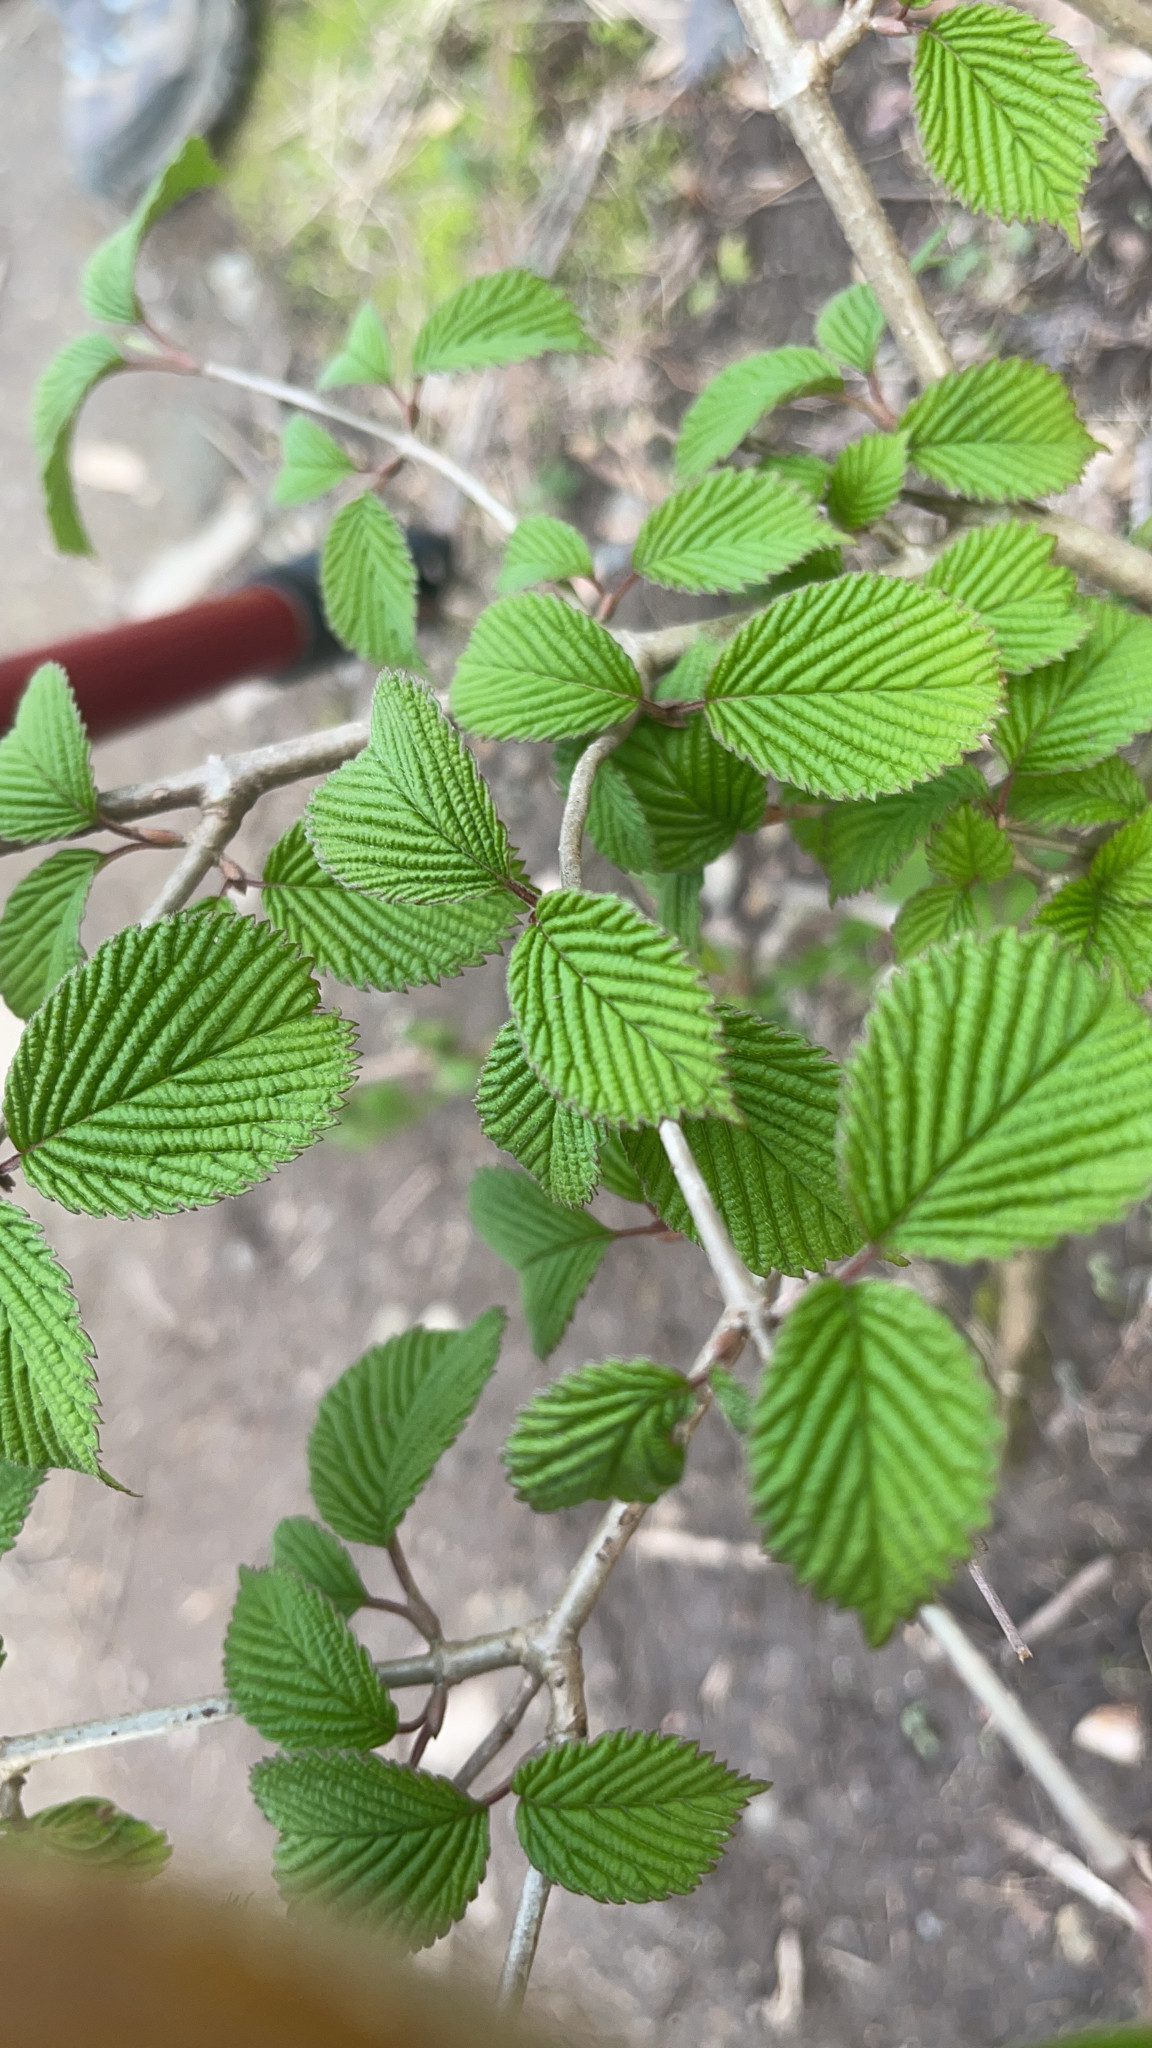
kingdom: Plantae
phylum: Tracheophyta
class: Magnoliopsida
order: Dipsacales
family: Viburnaceae
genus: Viburnum
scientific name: Viburnum plicatum
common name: Japanese snowball
